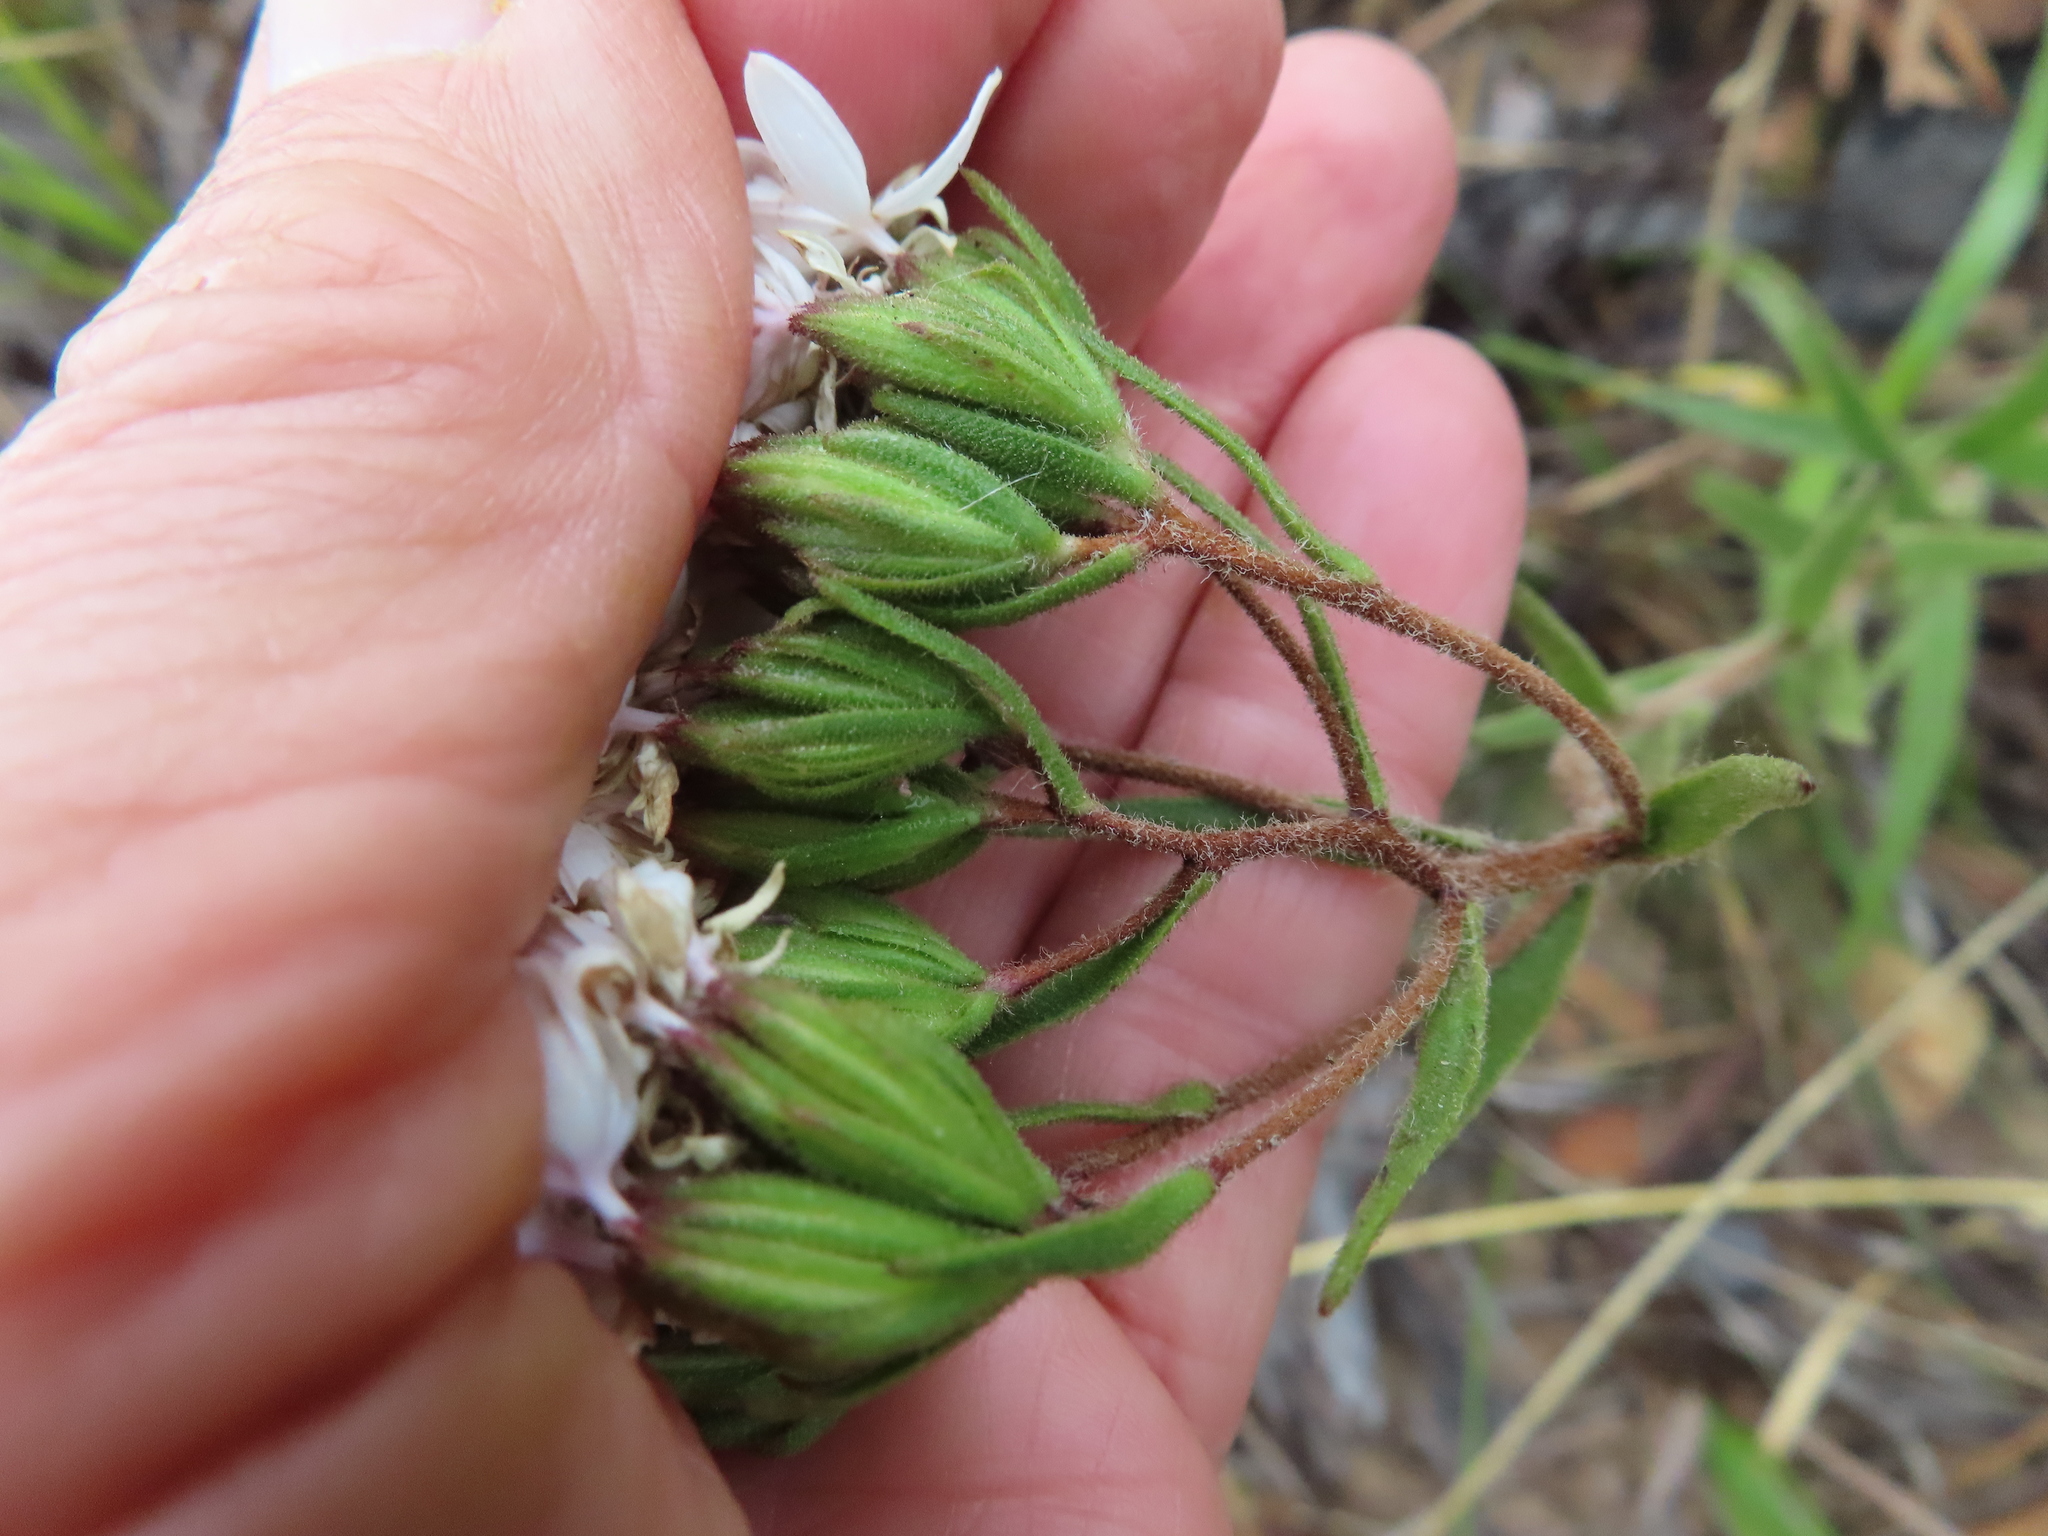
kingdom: Plantae
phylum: Tracheophyta
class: Magnoliopsida
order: Asterales
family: Asteraceae
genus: Corymbium
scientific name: Corymbium villosum
